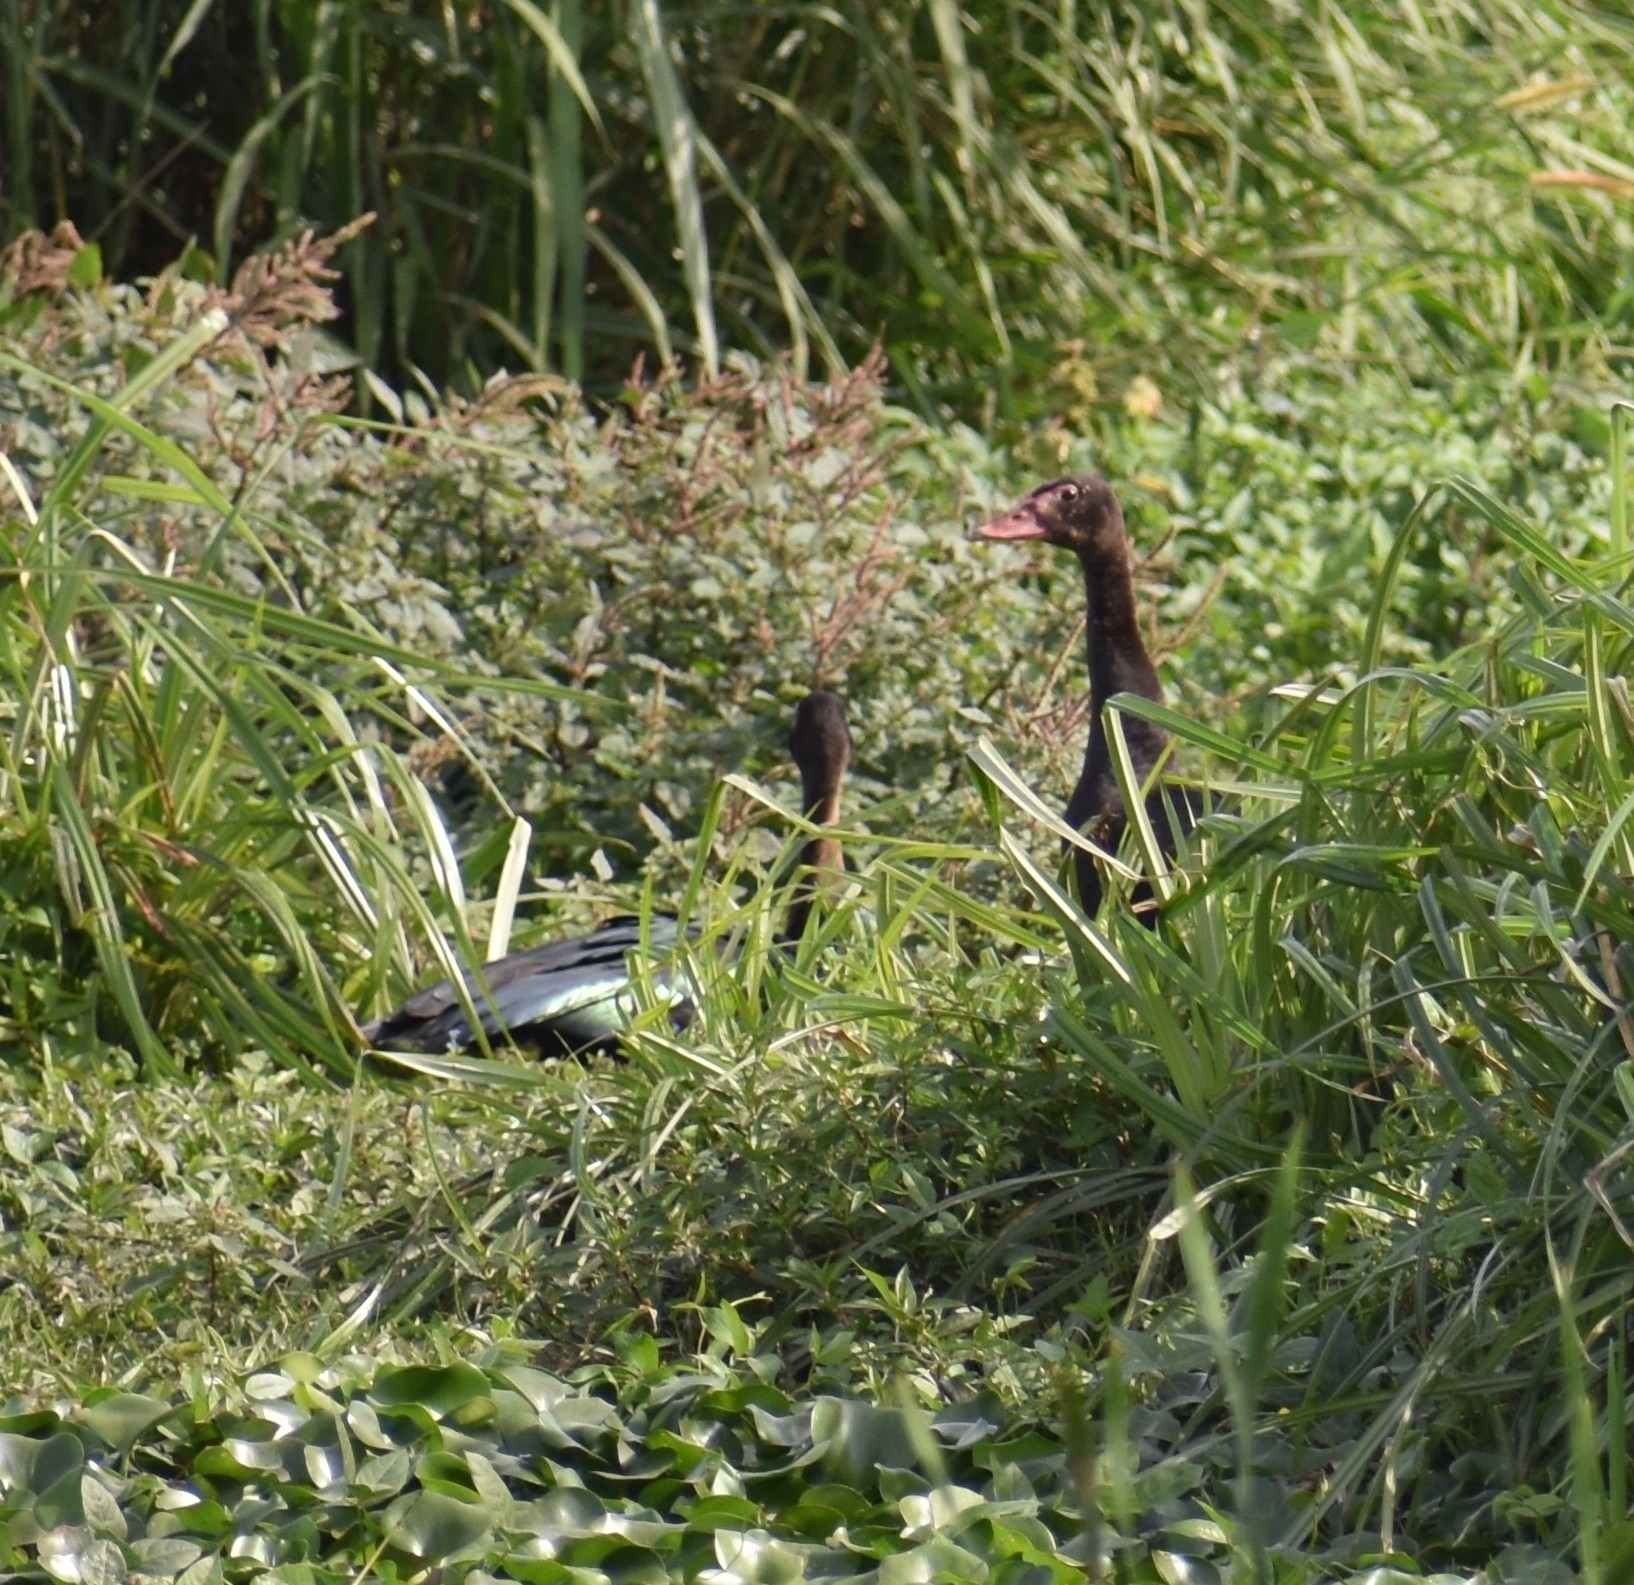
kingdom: Animalia
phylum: Chordata
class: Aves
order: Anseriformes
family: Anatidae
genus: Plectropterus
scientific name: Plectropterus gambensis
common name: Spur-winged goose
